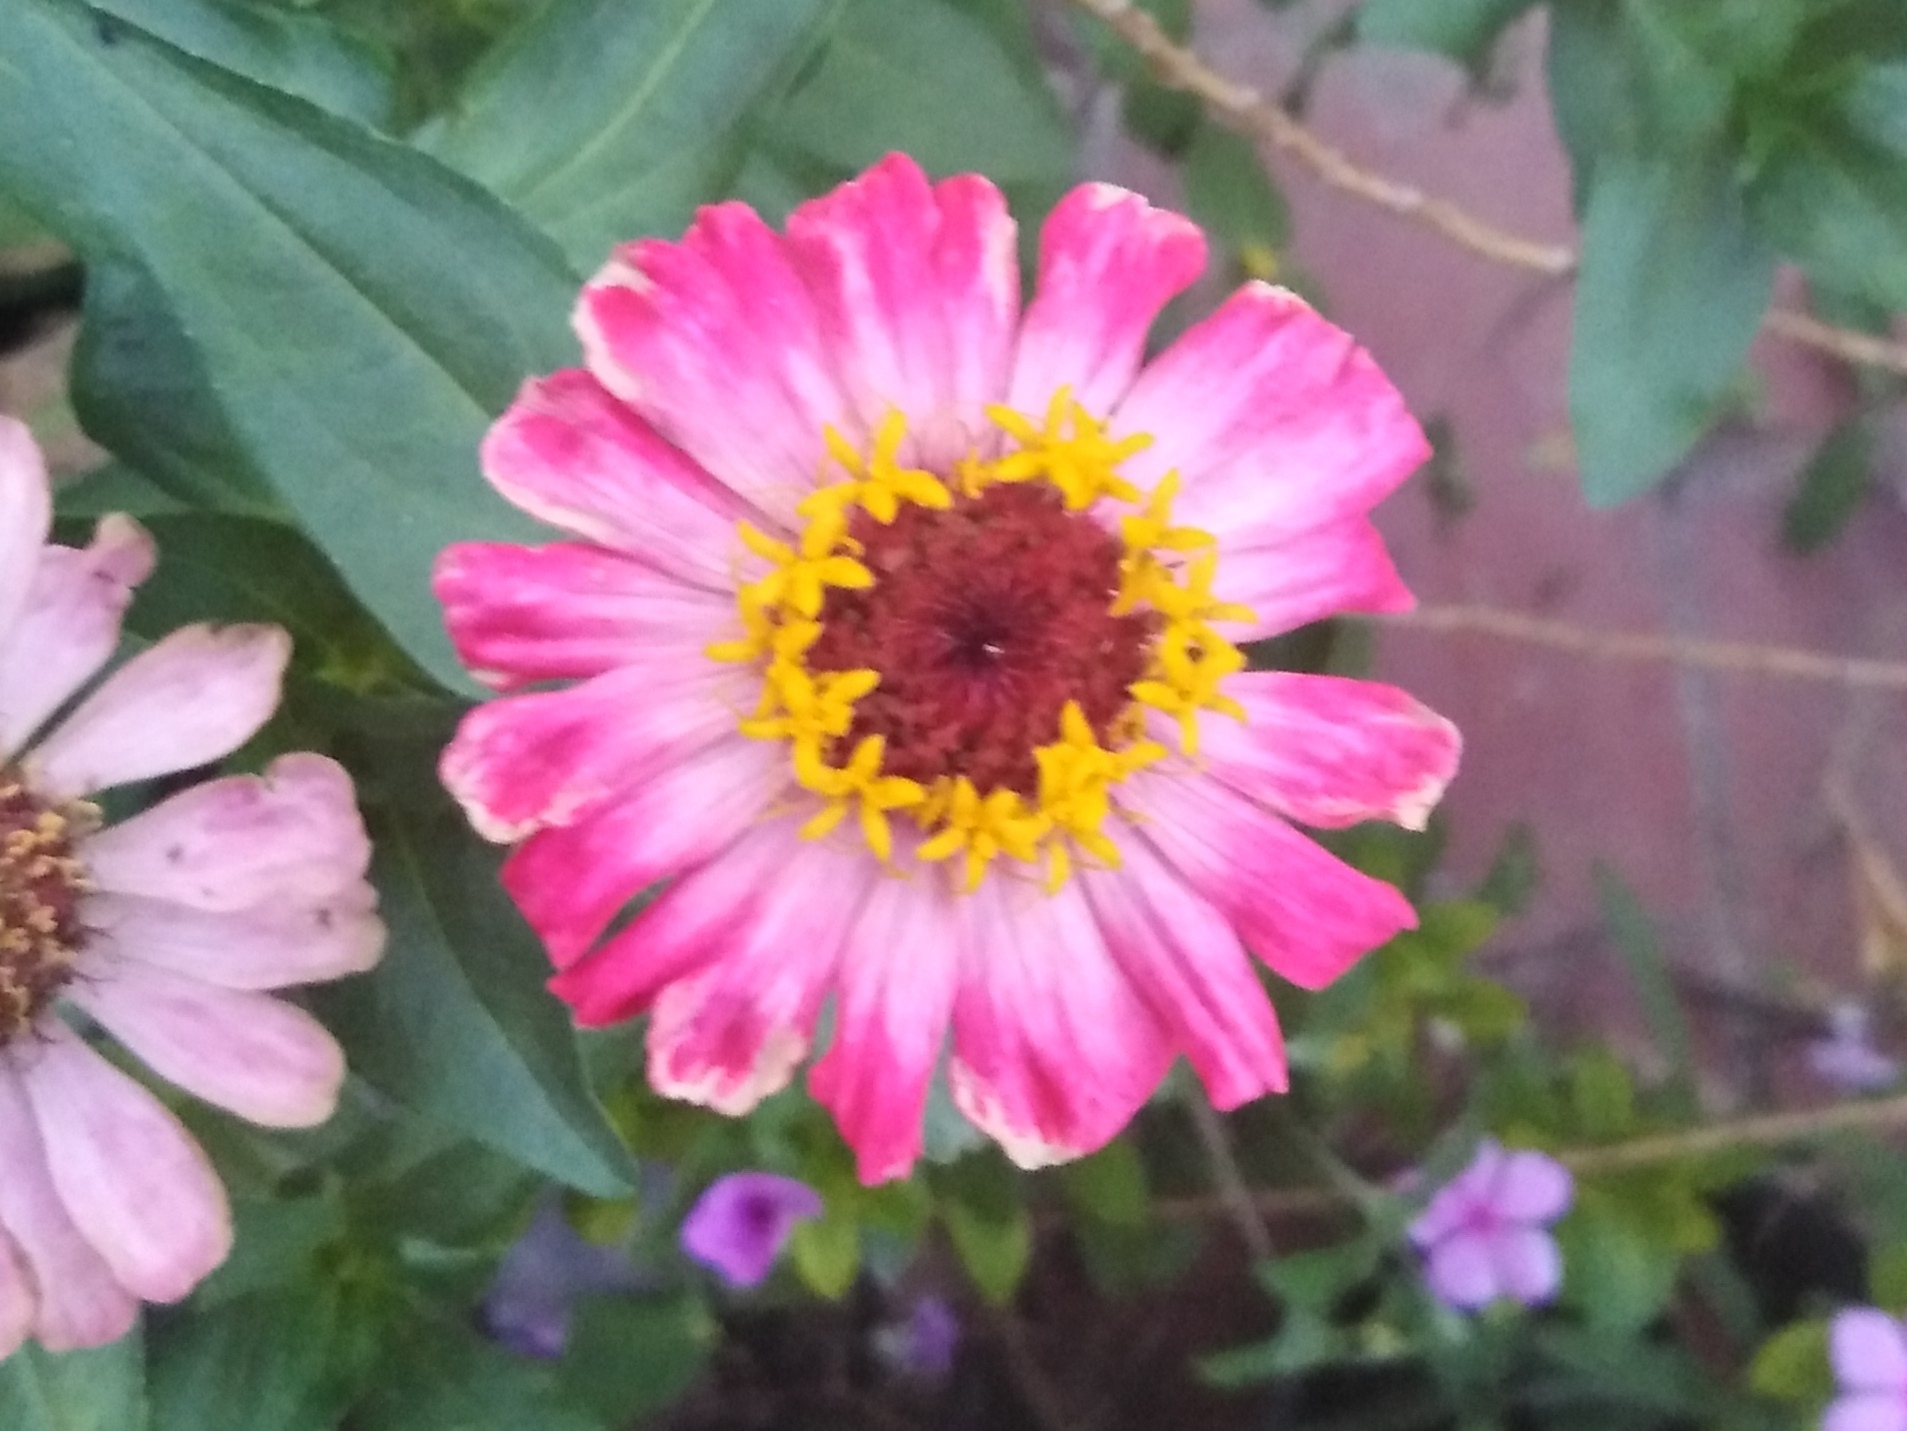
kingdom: Plantae
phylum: Tracheophyta
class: Magnoliopsida
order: Asterales
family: Asteraceae
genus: Zinnia
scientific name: Zinnia elegans
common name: Youth-and-age
